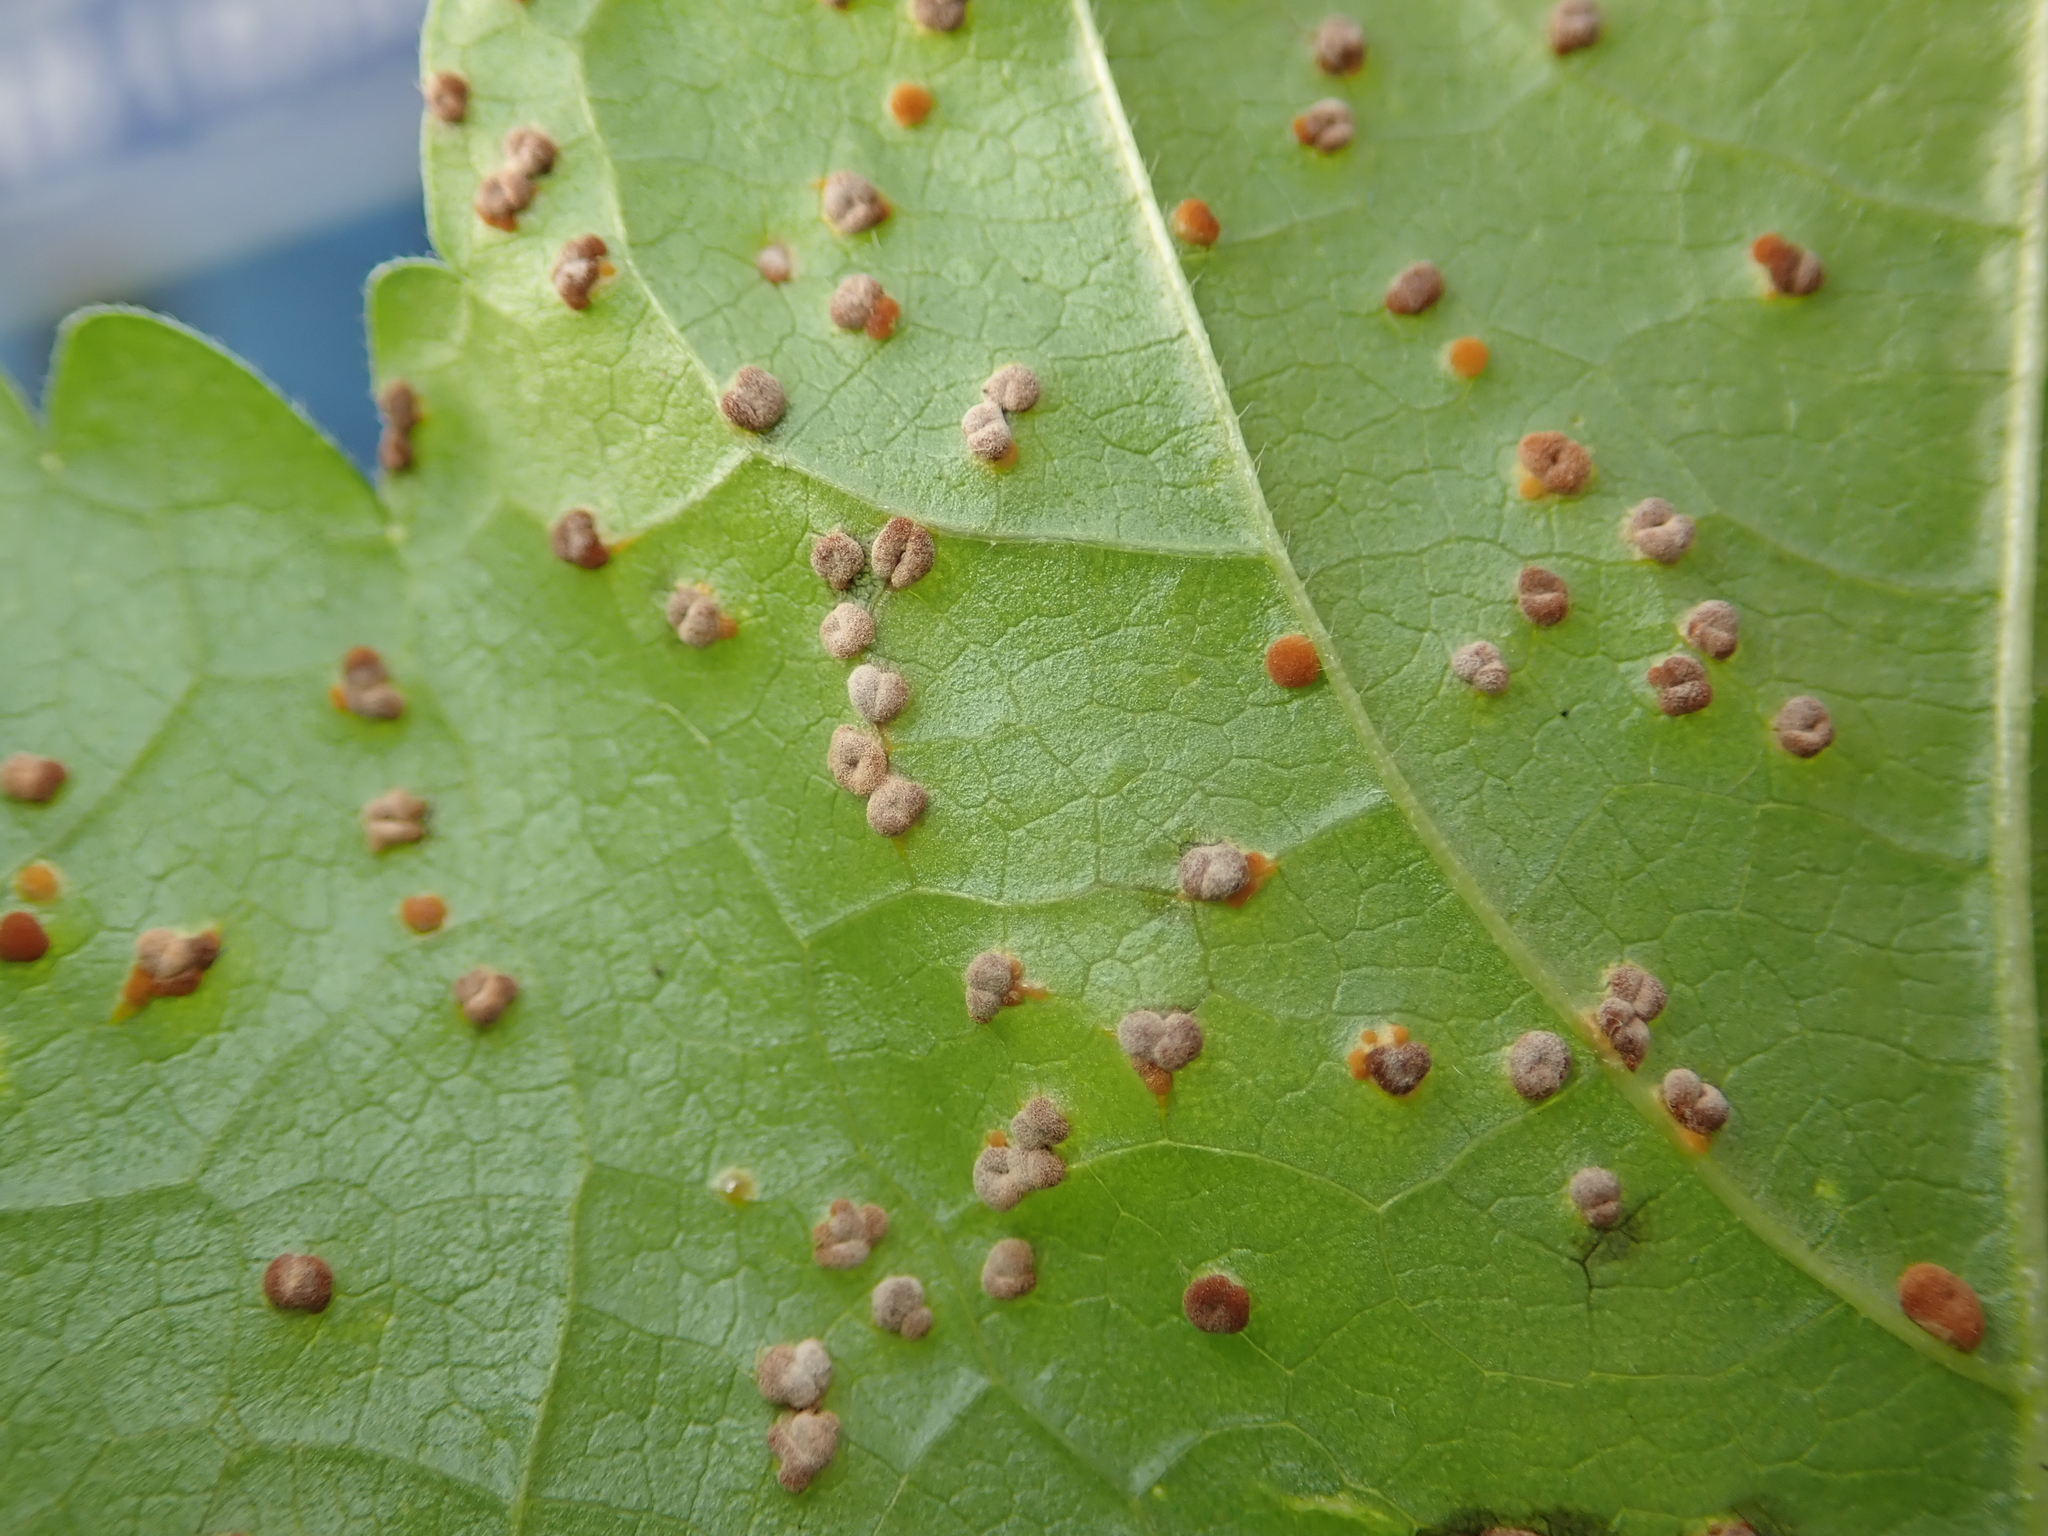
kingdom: Fungi
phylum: Basidiomycota
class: Pucciniomycetes
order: Pucciniales
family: Pucciniaceae
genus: Puccinia
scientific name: Puccinia malvacearum
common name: Hollyhock rust
